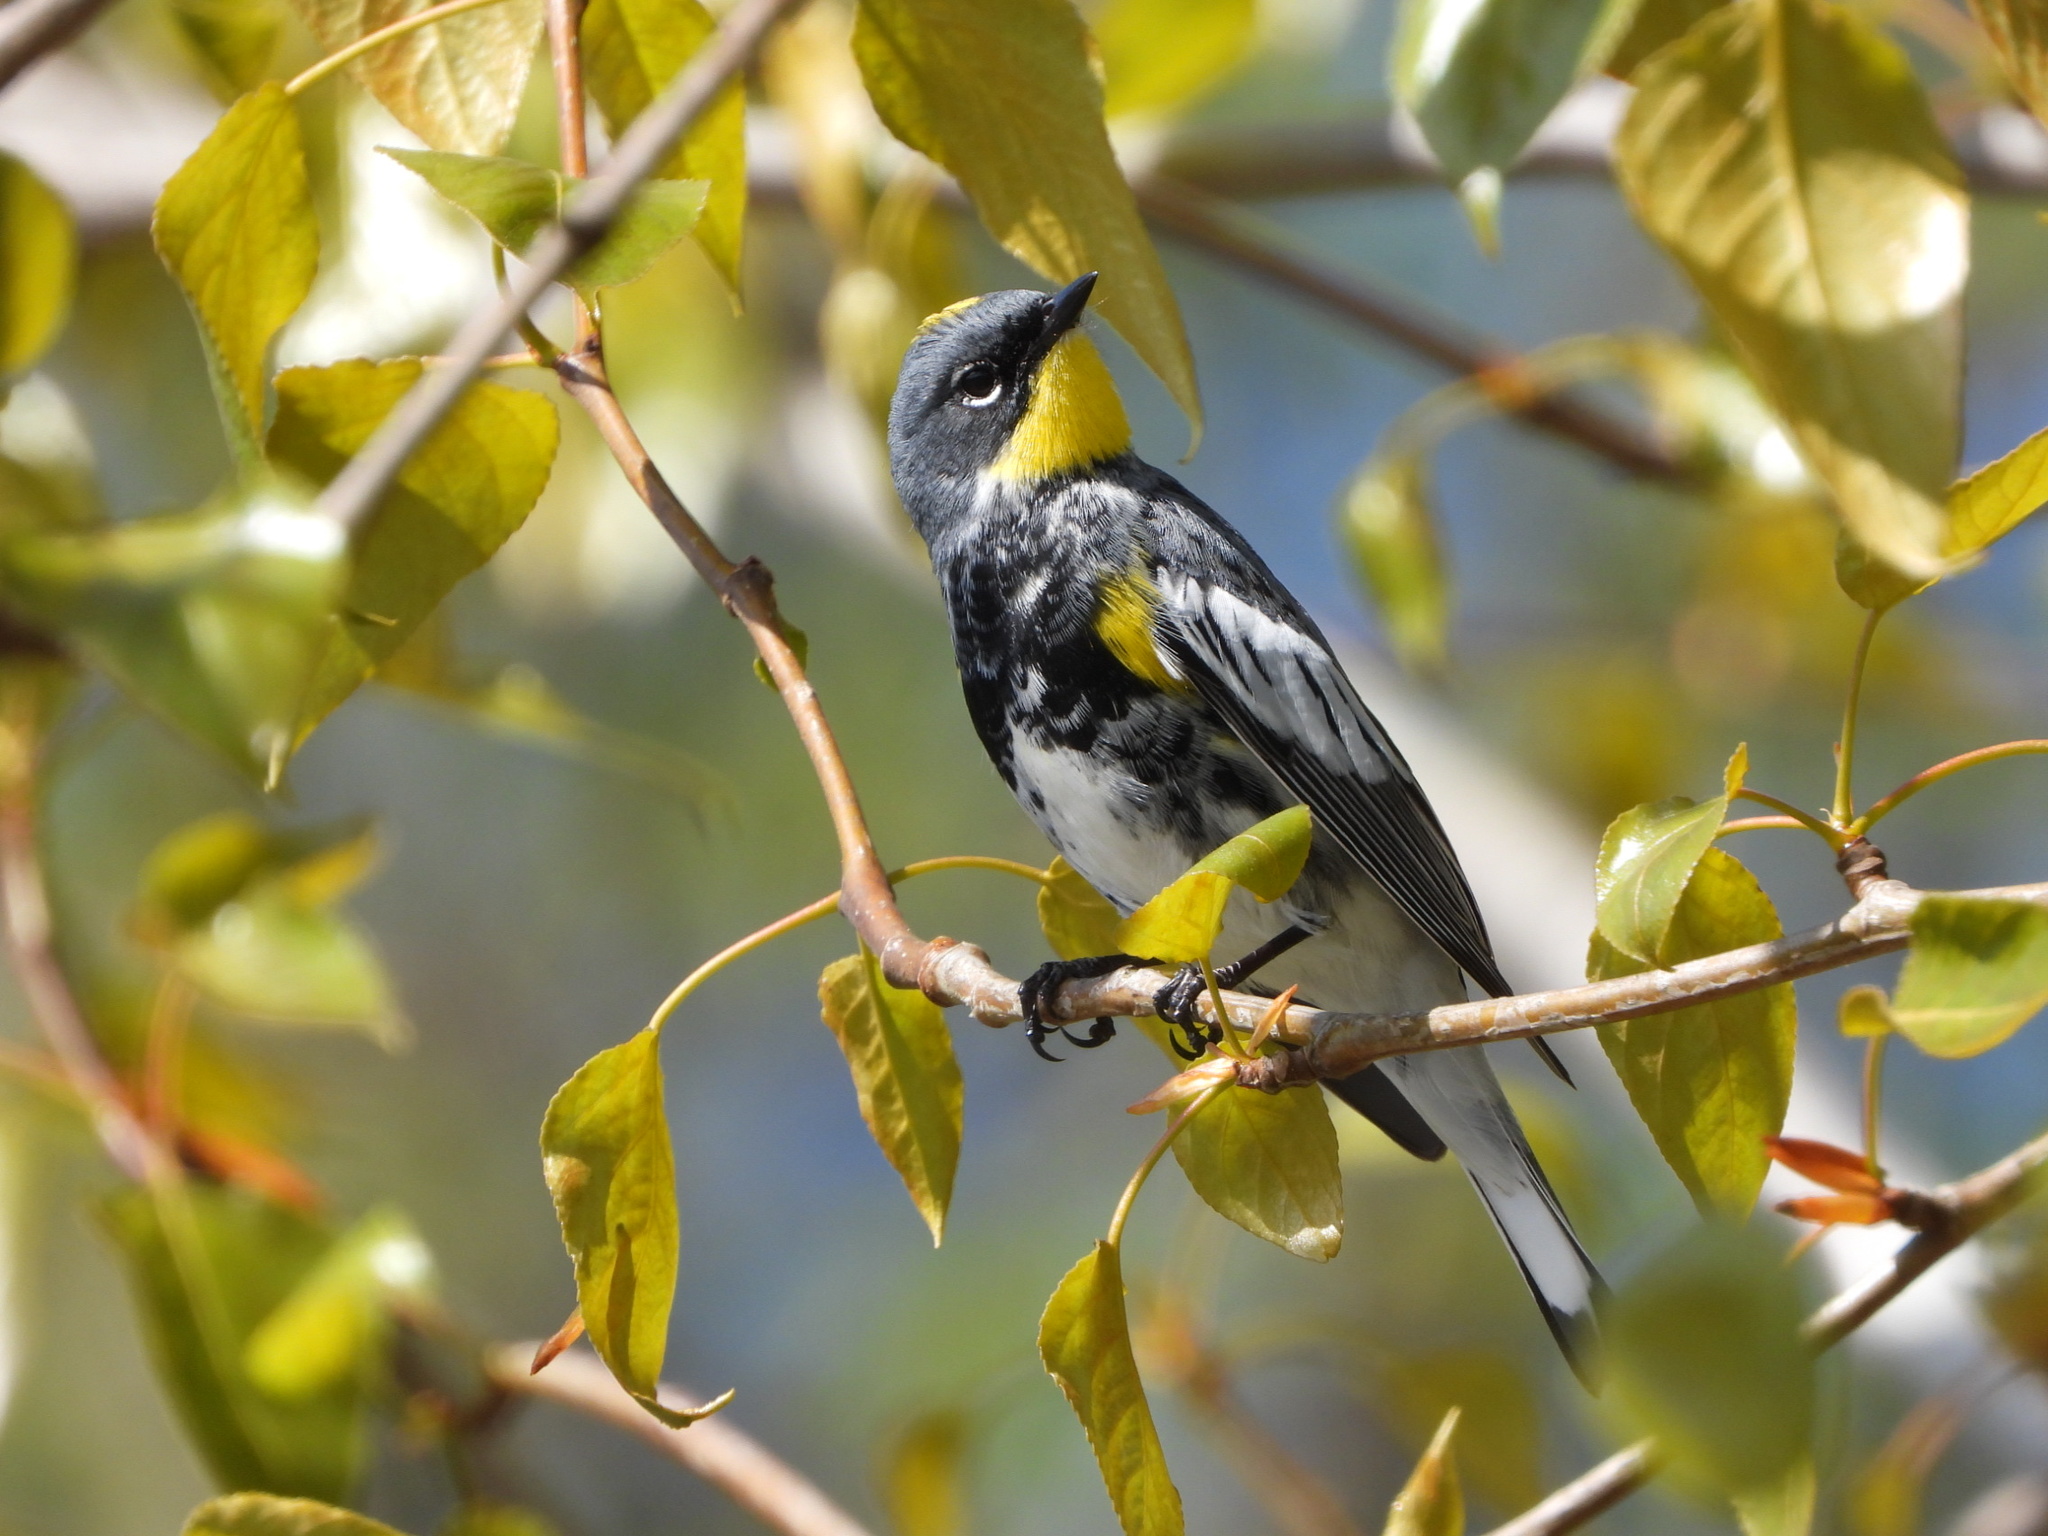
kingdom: Animalia
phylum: Chordata
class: Aves
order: Passeriformes
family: Parulidae
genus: Setophaga
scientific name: Setophaga auduboni
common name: Audubon's warbler
